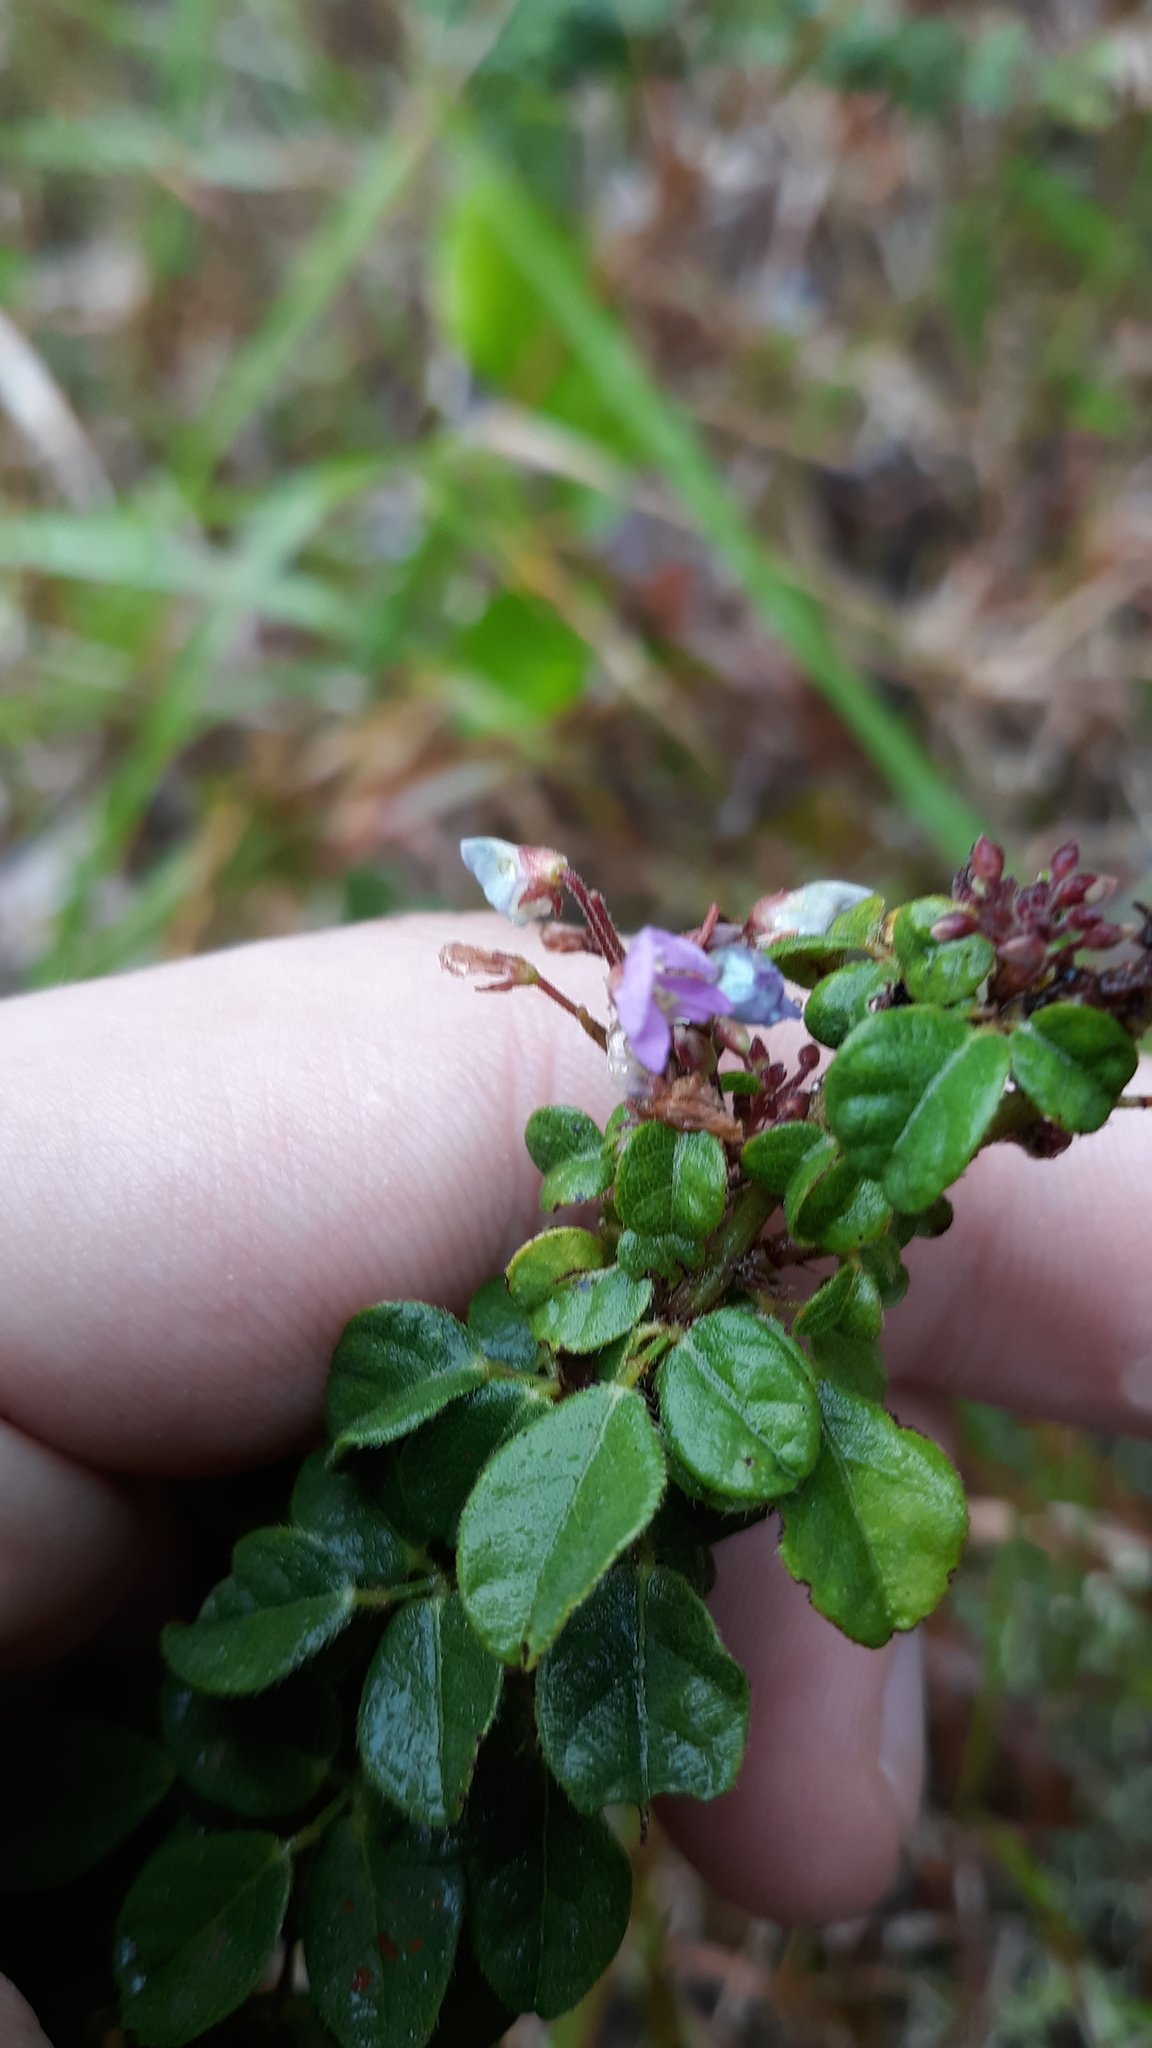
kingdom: Plantae
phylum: Tracheophyta
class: Magnoliopsida
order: Fabales
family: Fabaceae
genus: Desmodium
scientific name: Desmodium ciliare
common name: Hairy small-leaf ticktrefoil
